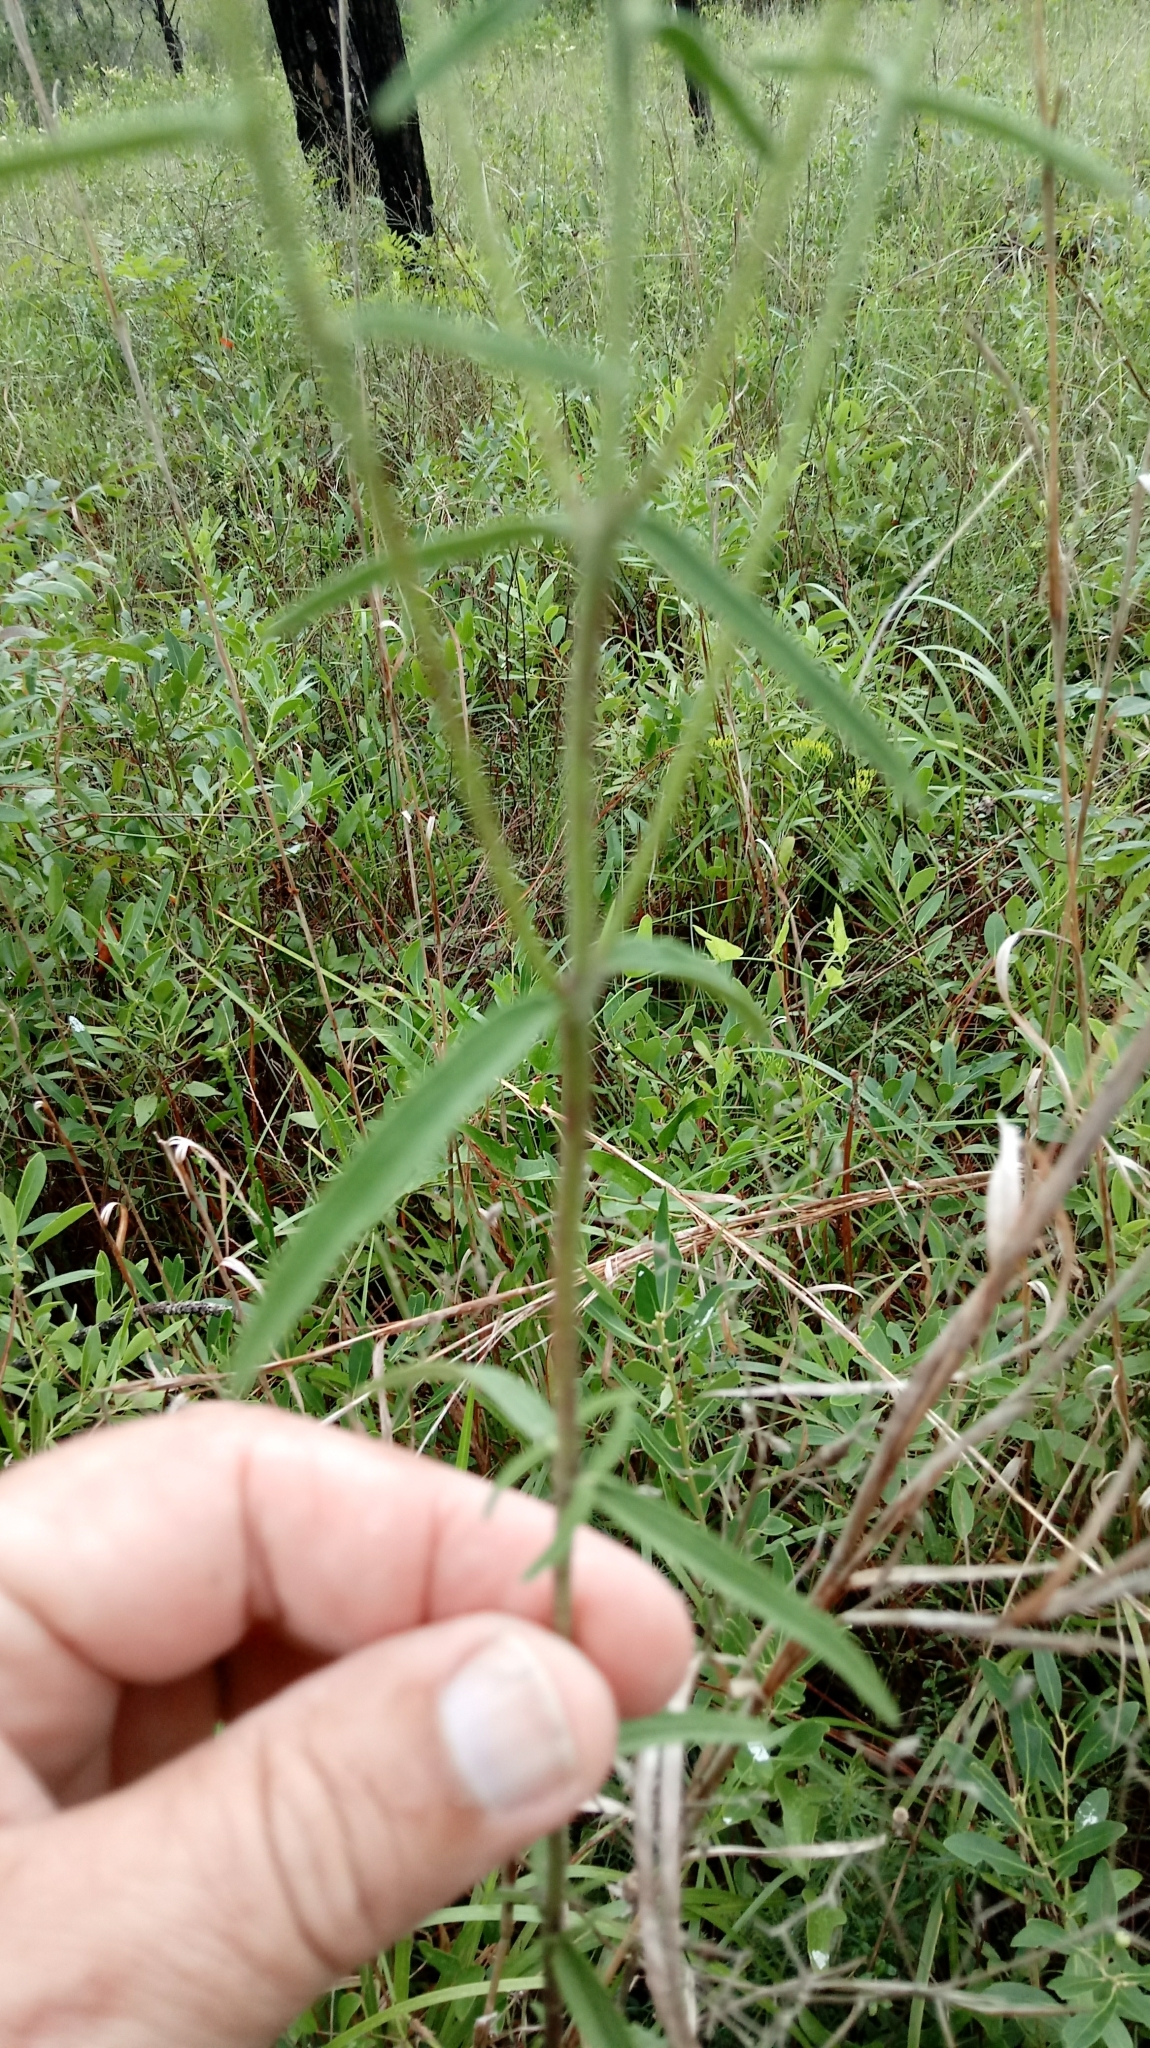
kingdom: Plantae
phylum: Tracheophyta
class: Magnoliopsida
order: Asterales
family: Asteraceae
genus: Eupatorium
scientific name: Eupatorium leucolepis
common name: Justiceweed
